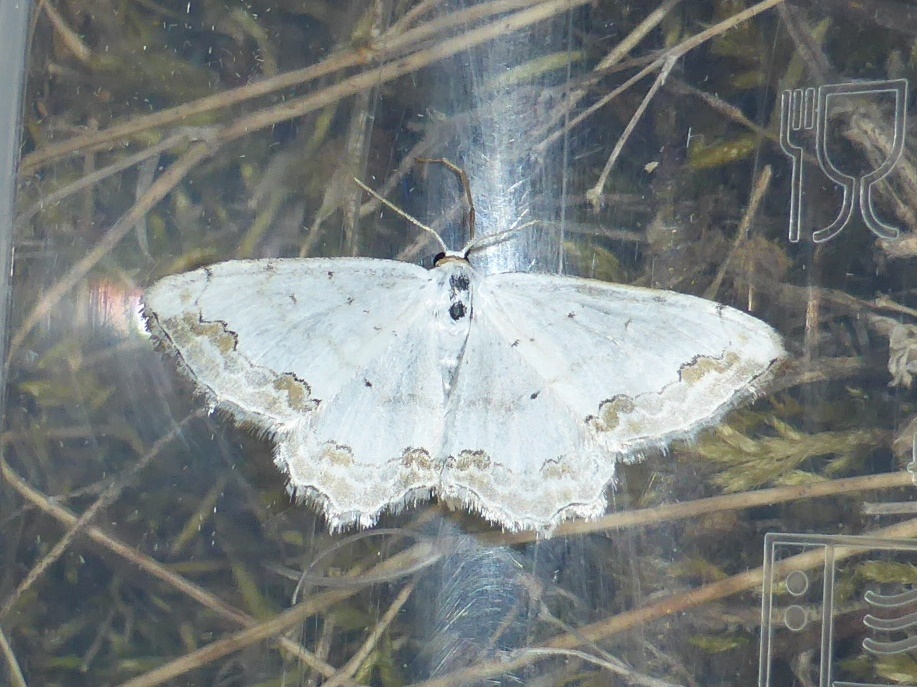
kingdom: Animalia
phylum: Arthropoda
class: Insecta
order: Lepidoptera
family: Geometridae
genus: Scopula
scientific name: Scopula ornata
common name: Lace border
